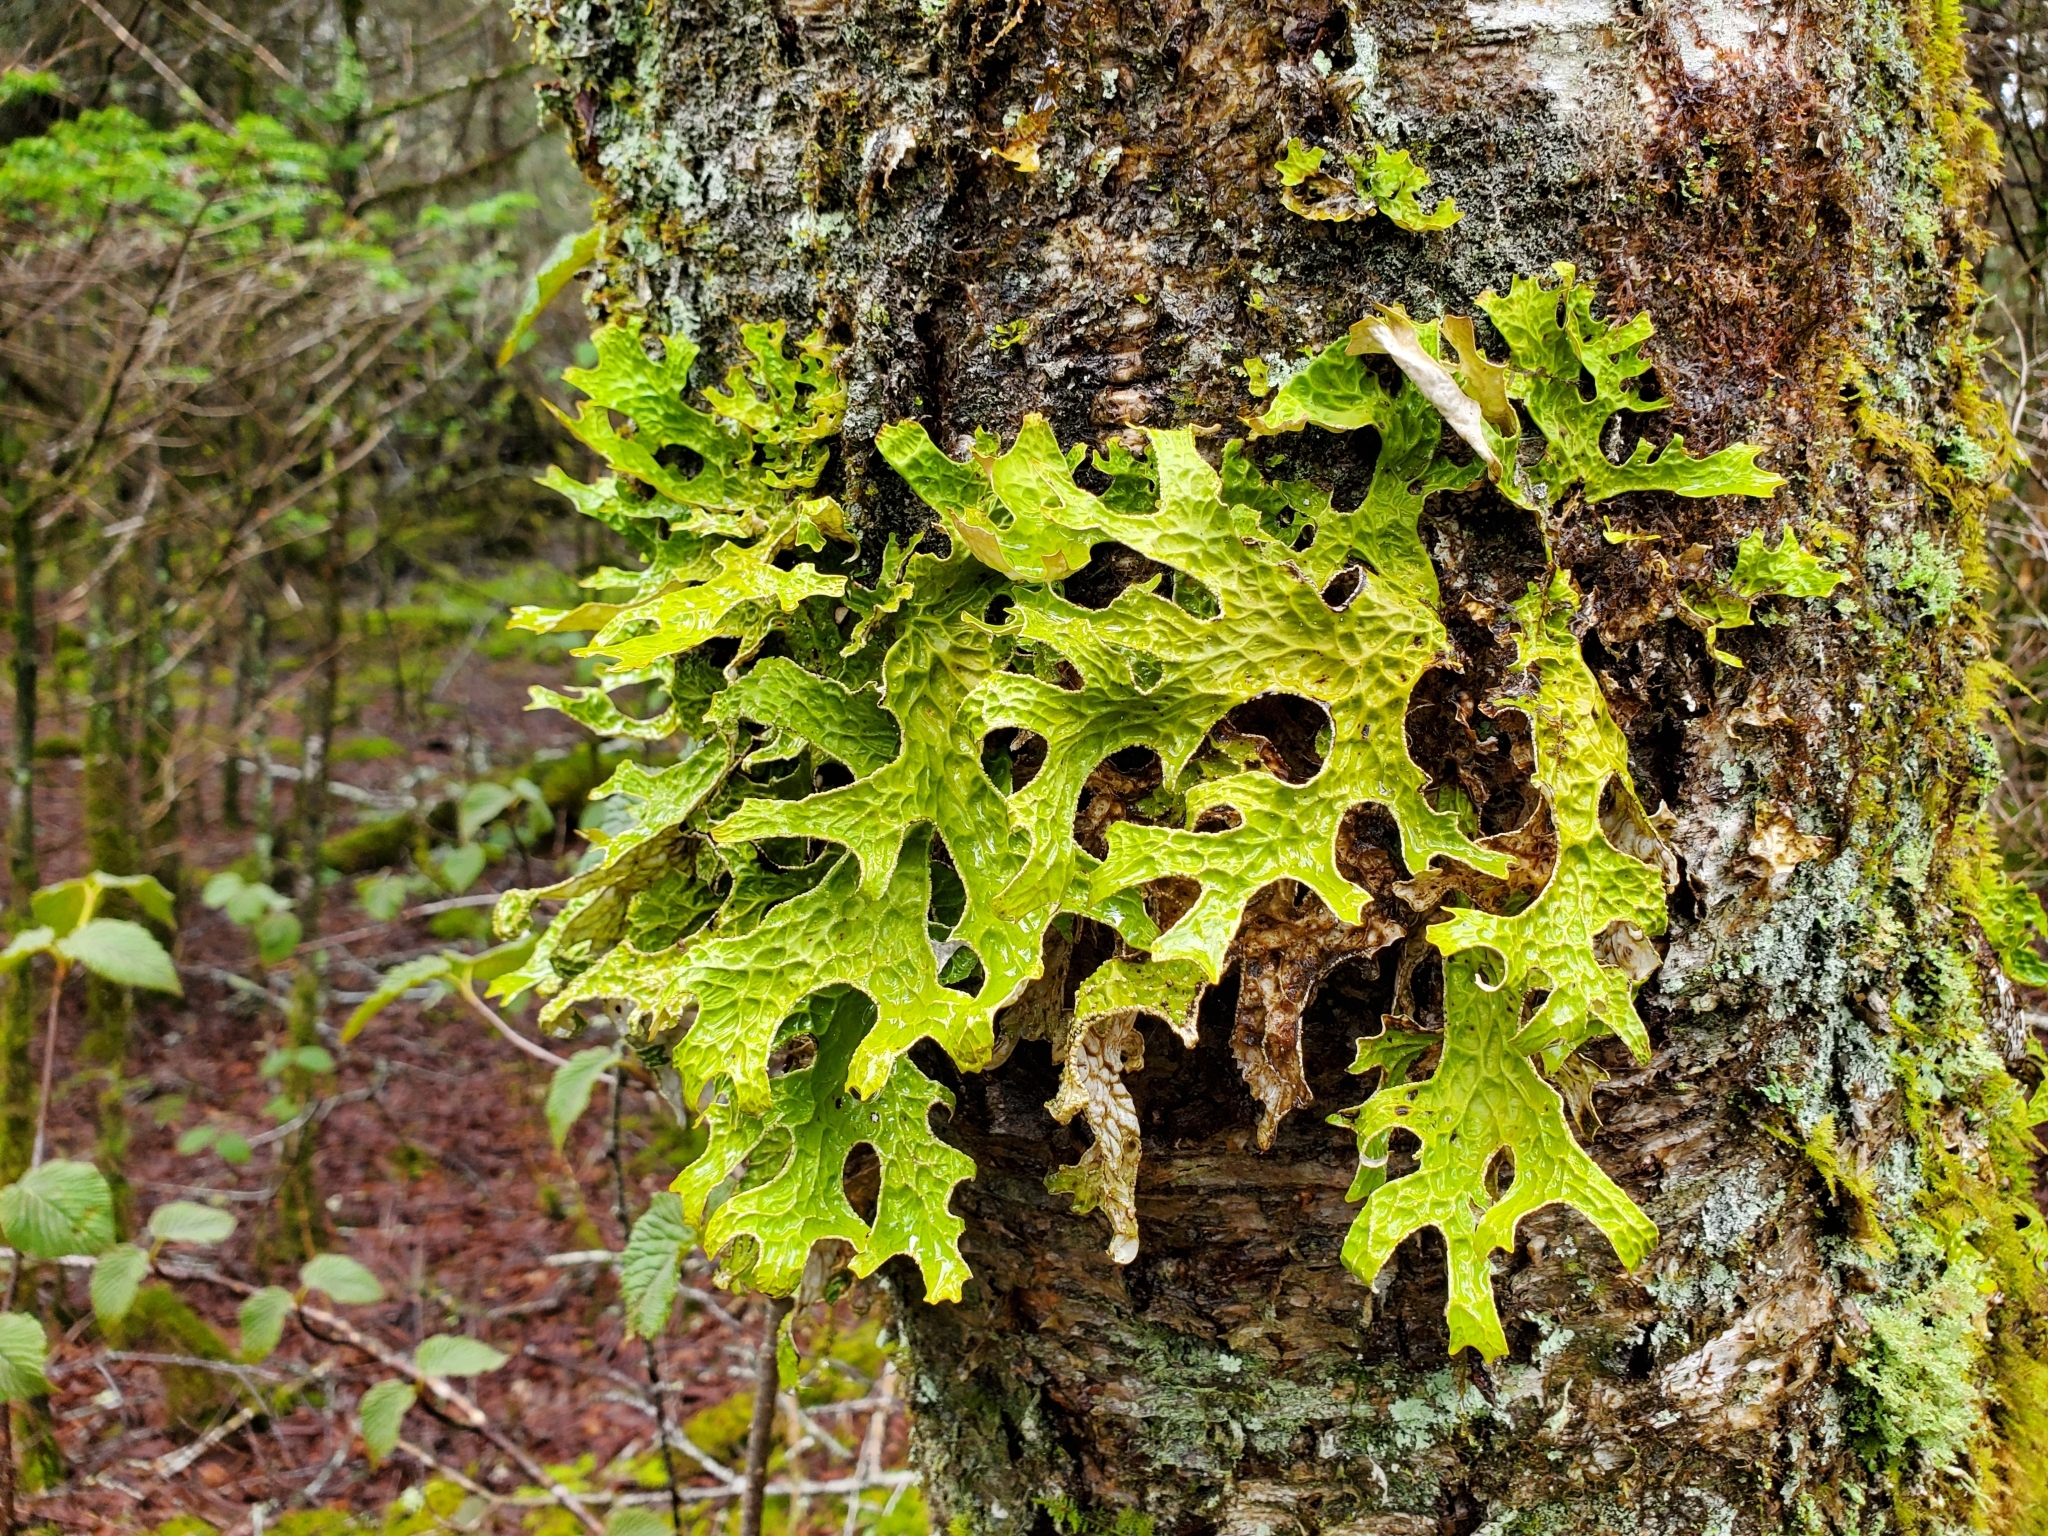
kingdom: Fungi
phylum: Ascomycota
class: Lecanoromycetes
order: Peltigerales
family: Lobariaceae
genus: Lobaria
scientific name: Lobaria pulmonaria
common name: Lungwort
